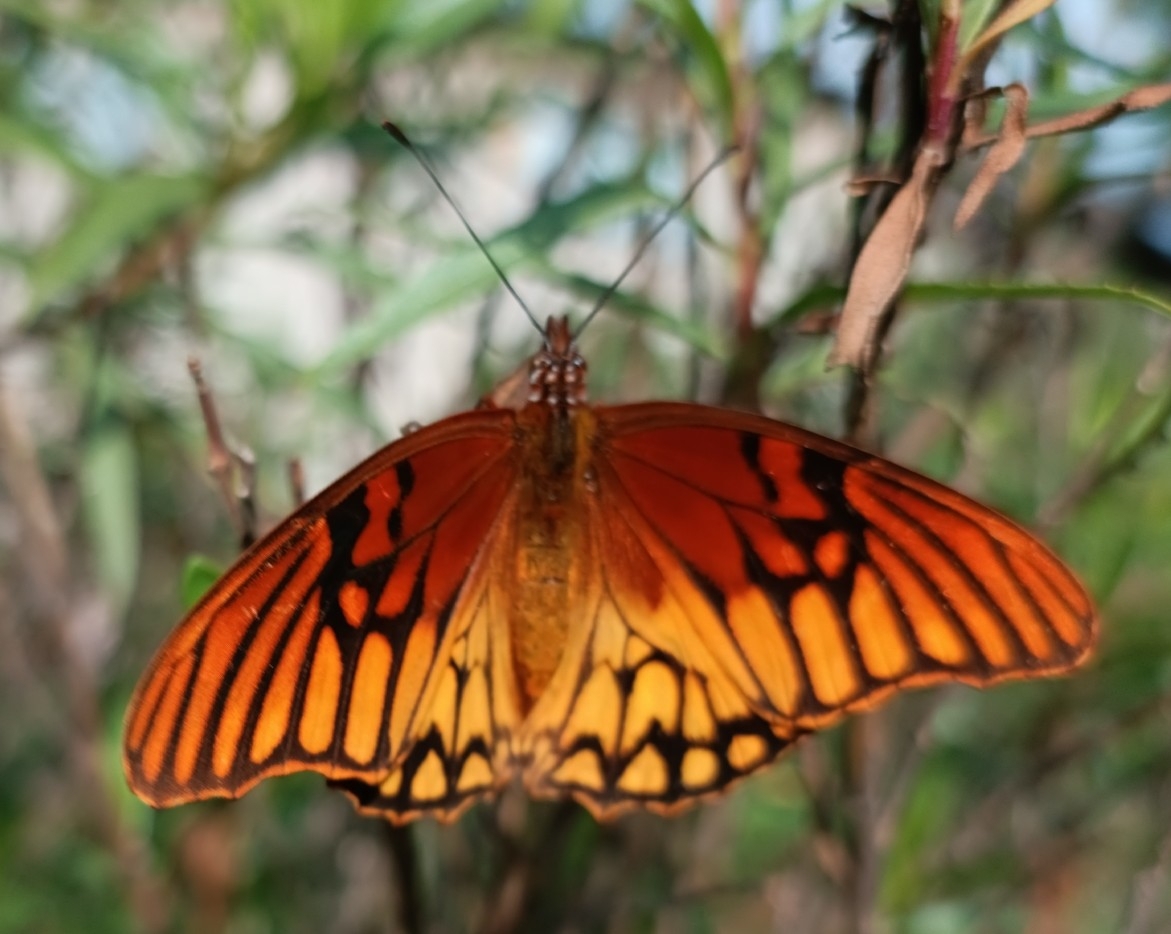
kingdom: Animalia
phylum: Arthropoda
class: Insecta
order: Lepidoptera
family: Nymphalidae
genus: Dione
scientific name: Dione moneta
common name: Mexican silverspot
